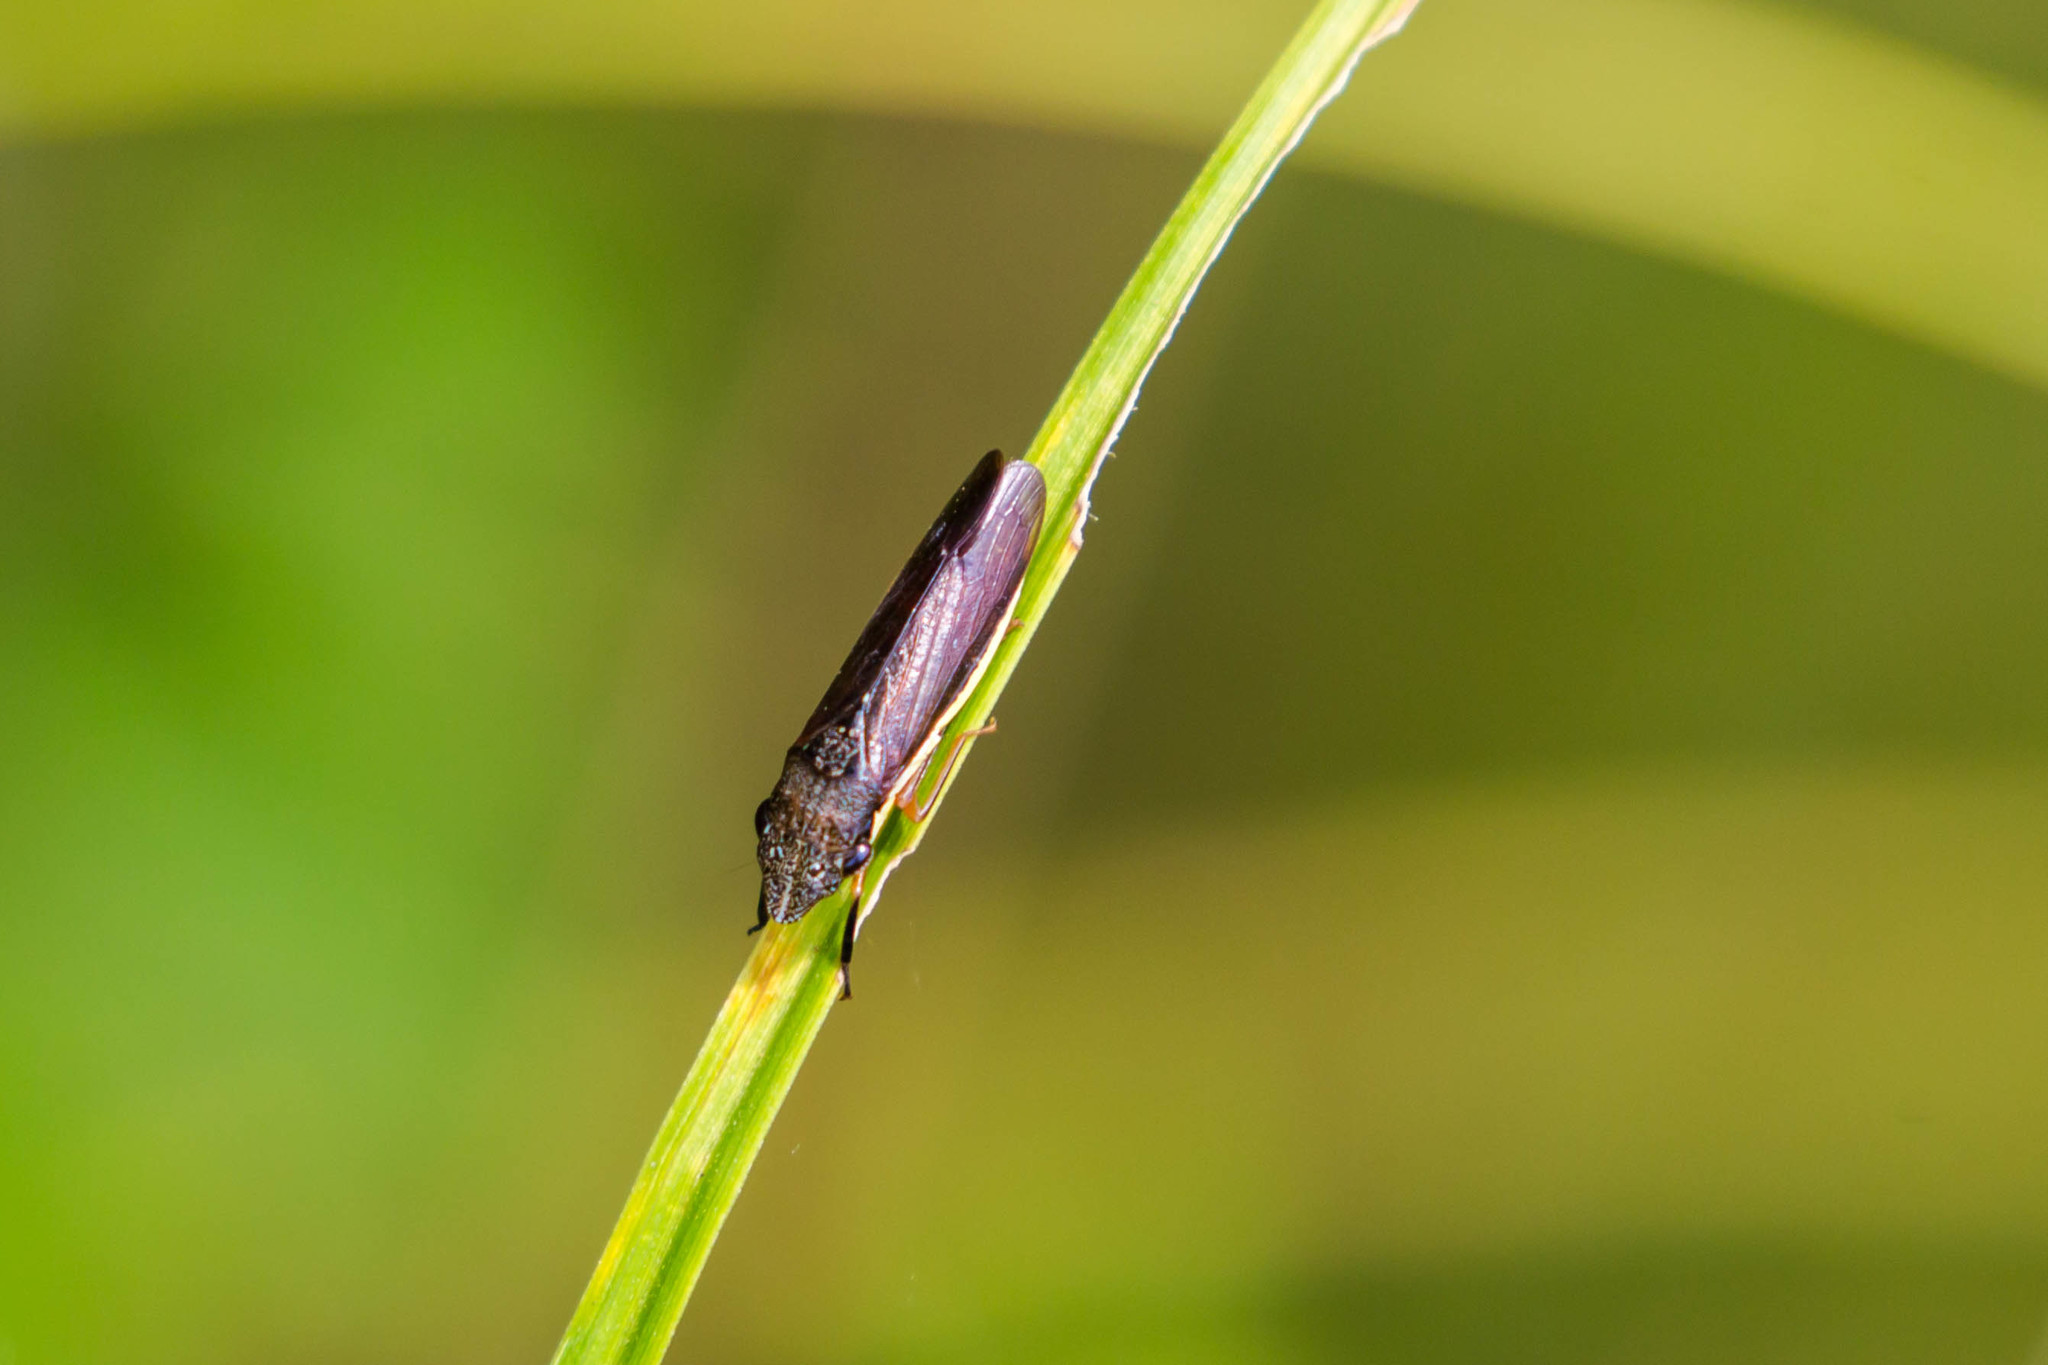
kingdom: Animalia
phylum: Arthropoda
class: Insecta
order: Hemiptera
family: Cicadellidae
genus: Homalodisca
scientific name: Homalodisca insolita
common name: Johnson grass sharpshooter
